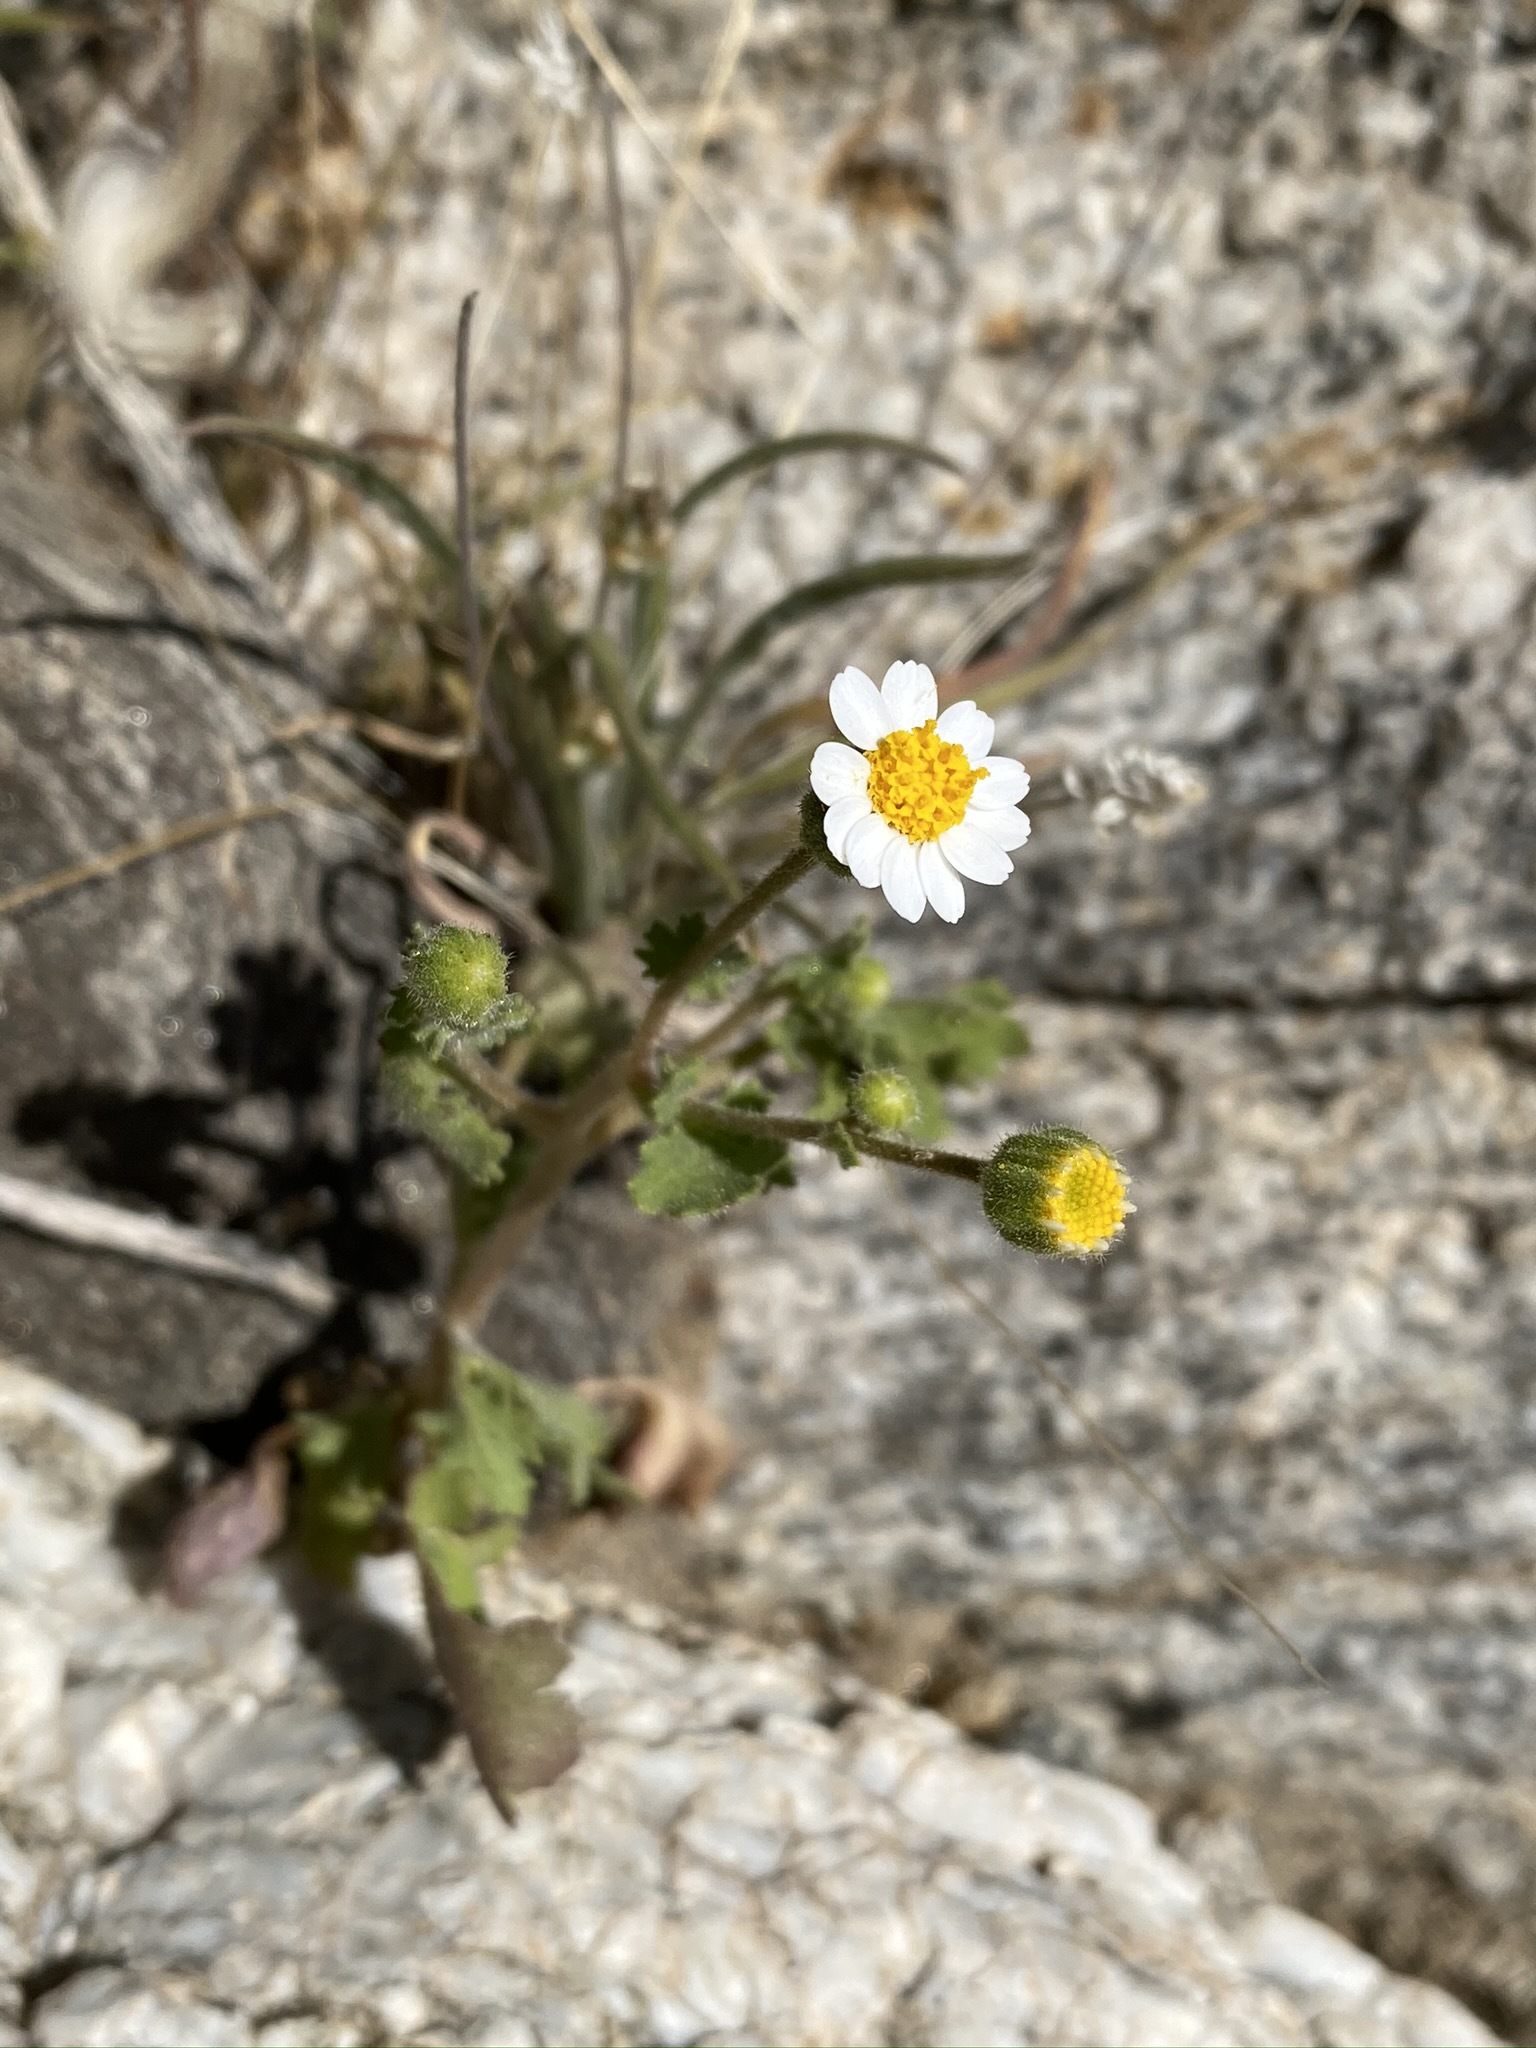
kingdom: Plantae
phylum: Tracheophyta
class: Magnoliopsida
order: Asterales
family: Asteraceae
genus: Laphamia
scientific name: Laphamia emoryi
